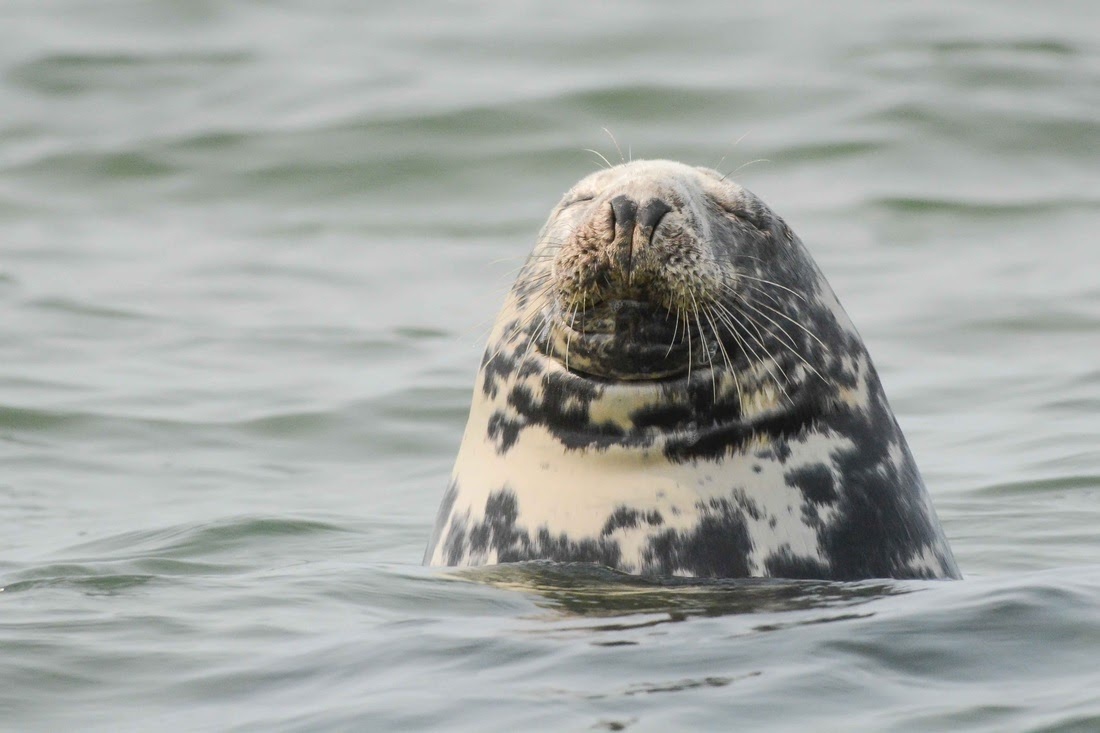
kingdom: Animalia
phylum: Chordata
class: Mammalia
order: Carnivora
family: Phocidae
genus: Halichoerus
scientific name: Halichoerus grypus
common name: Grey seal
